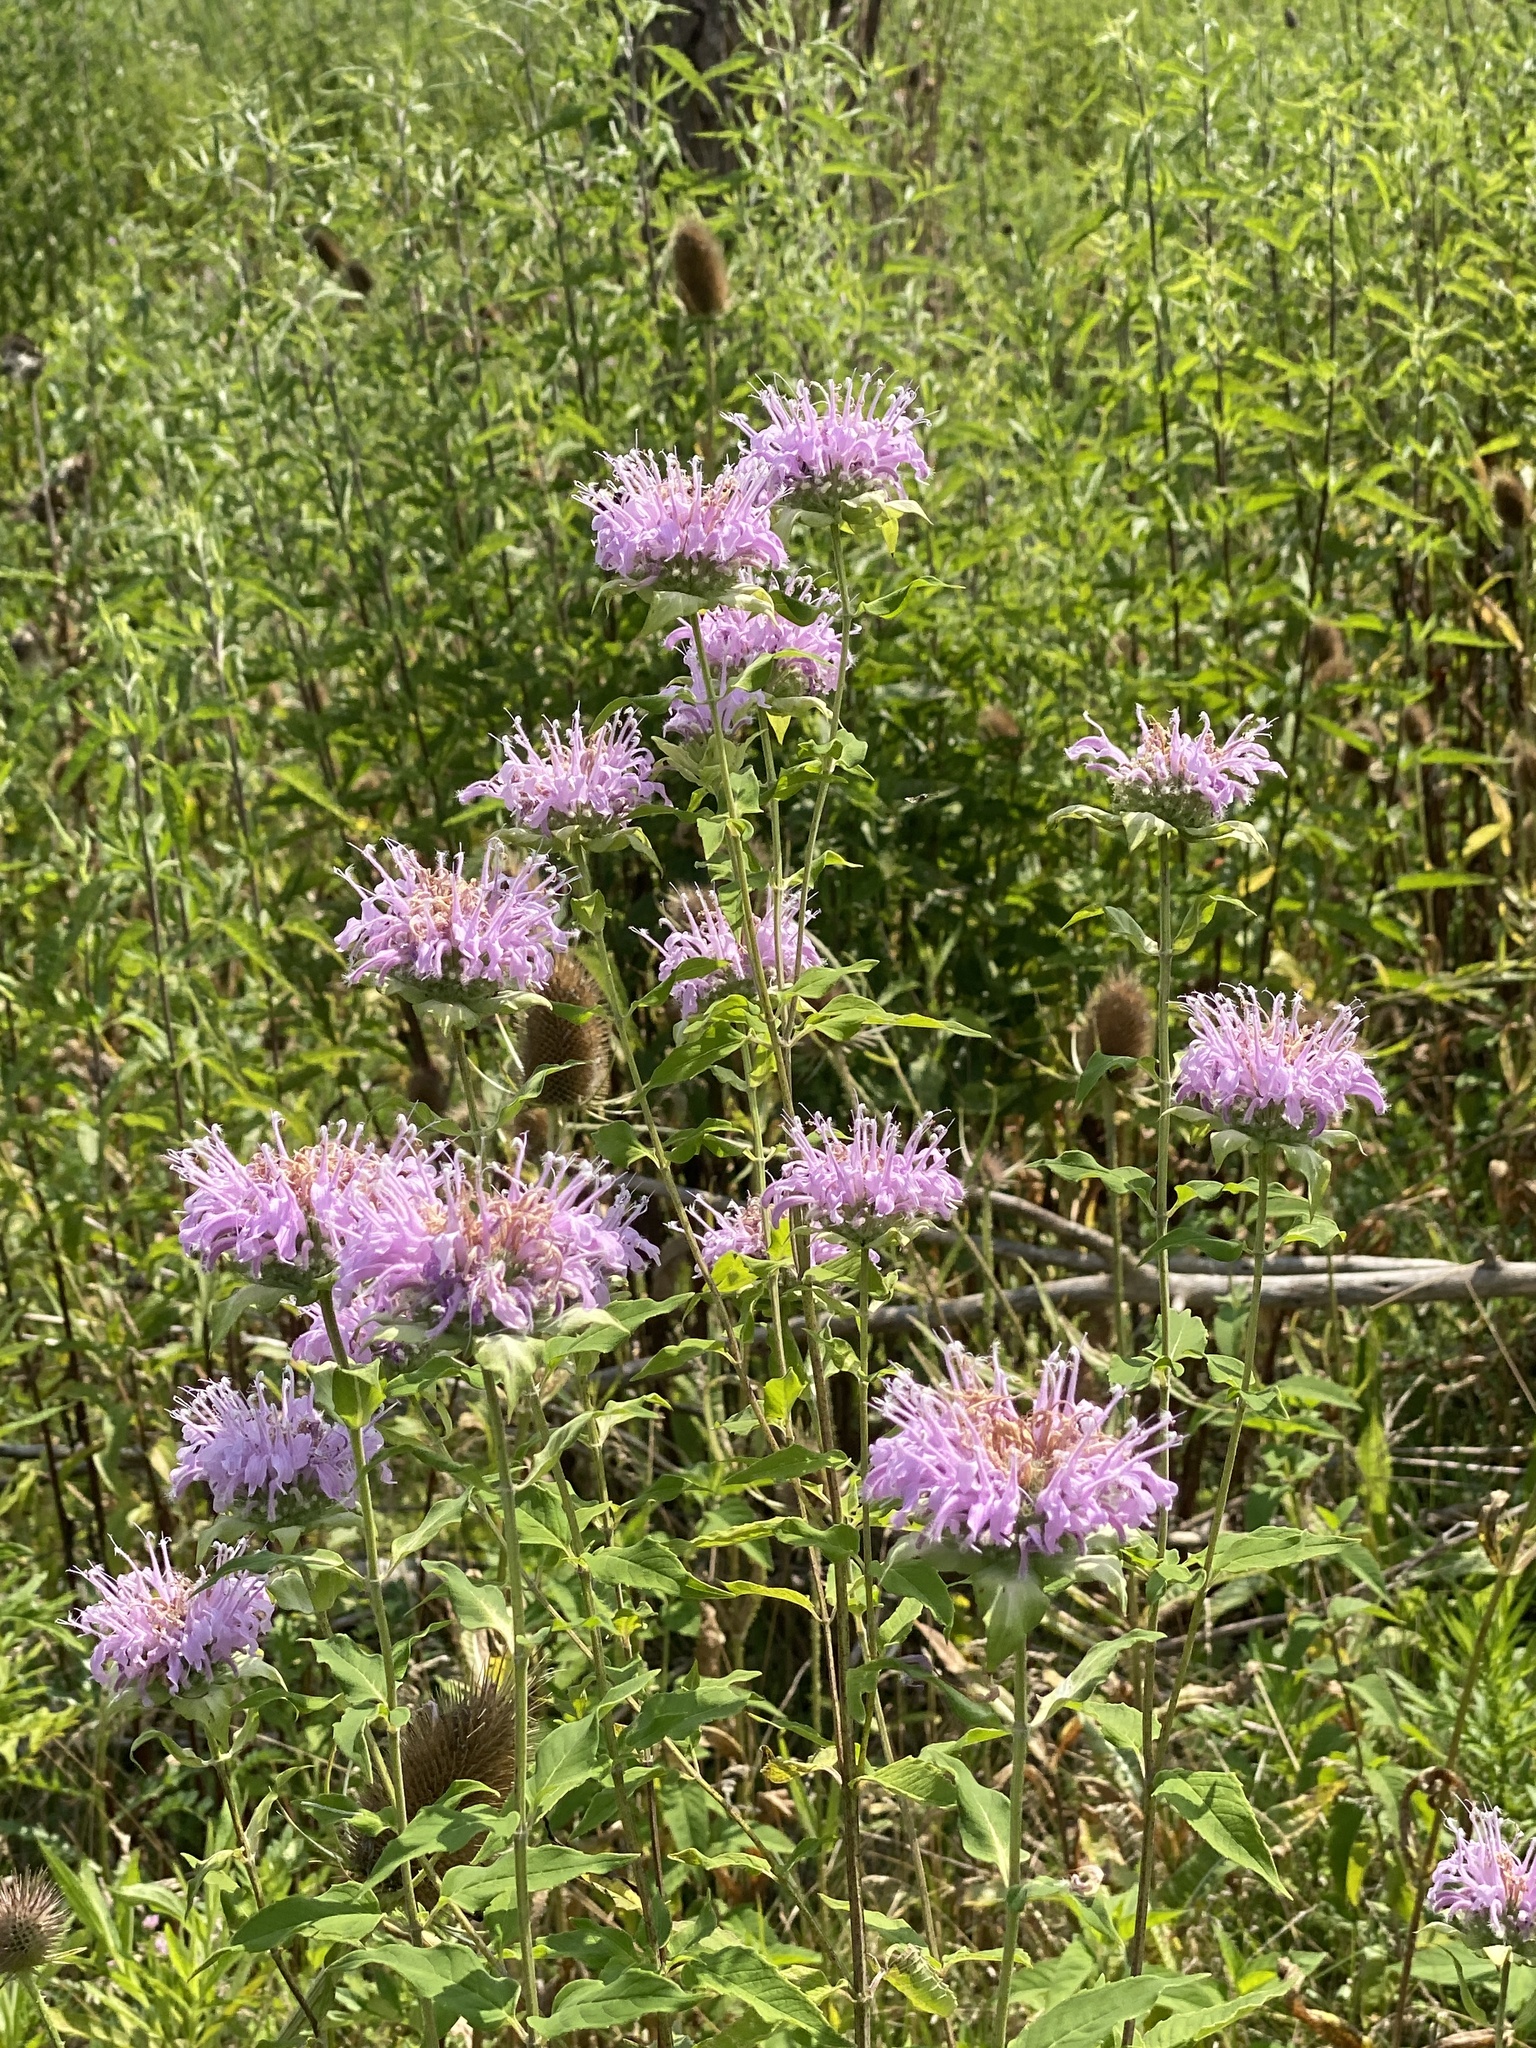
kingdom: Plantae
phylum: Tracheophyta
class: Magnoliopsida
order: Lamiales
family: Lamiaceae
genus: Monarda
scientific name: Monarda fistulosa
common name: Purple beebalm
